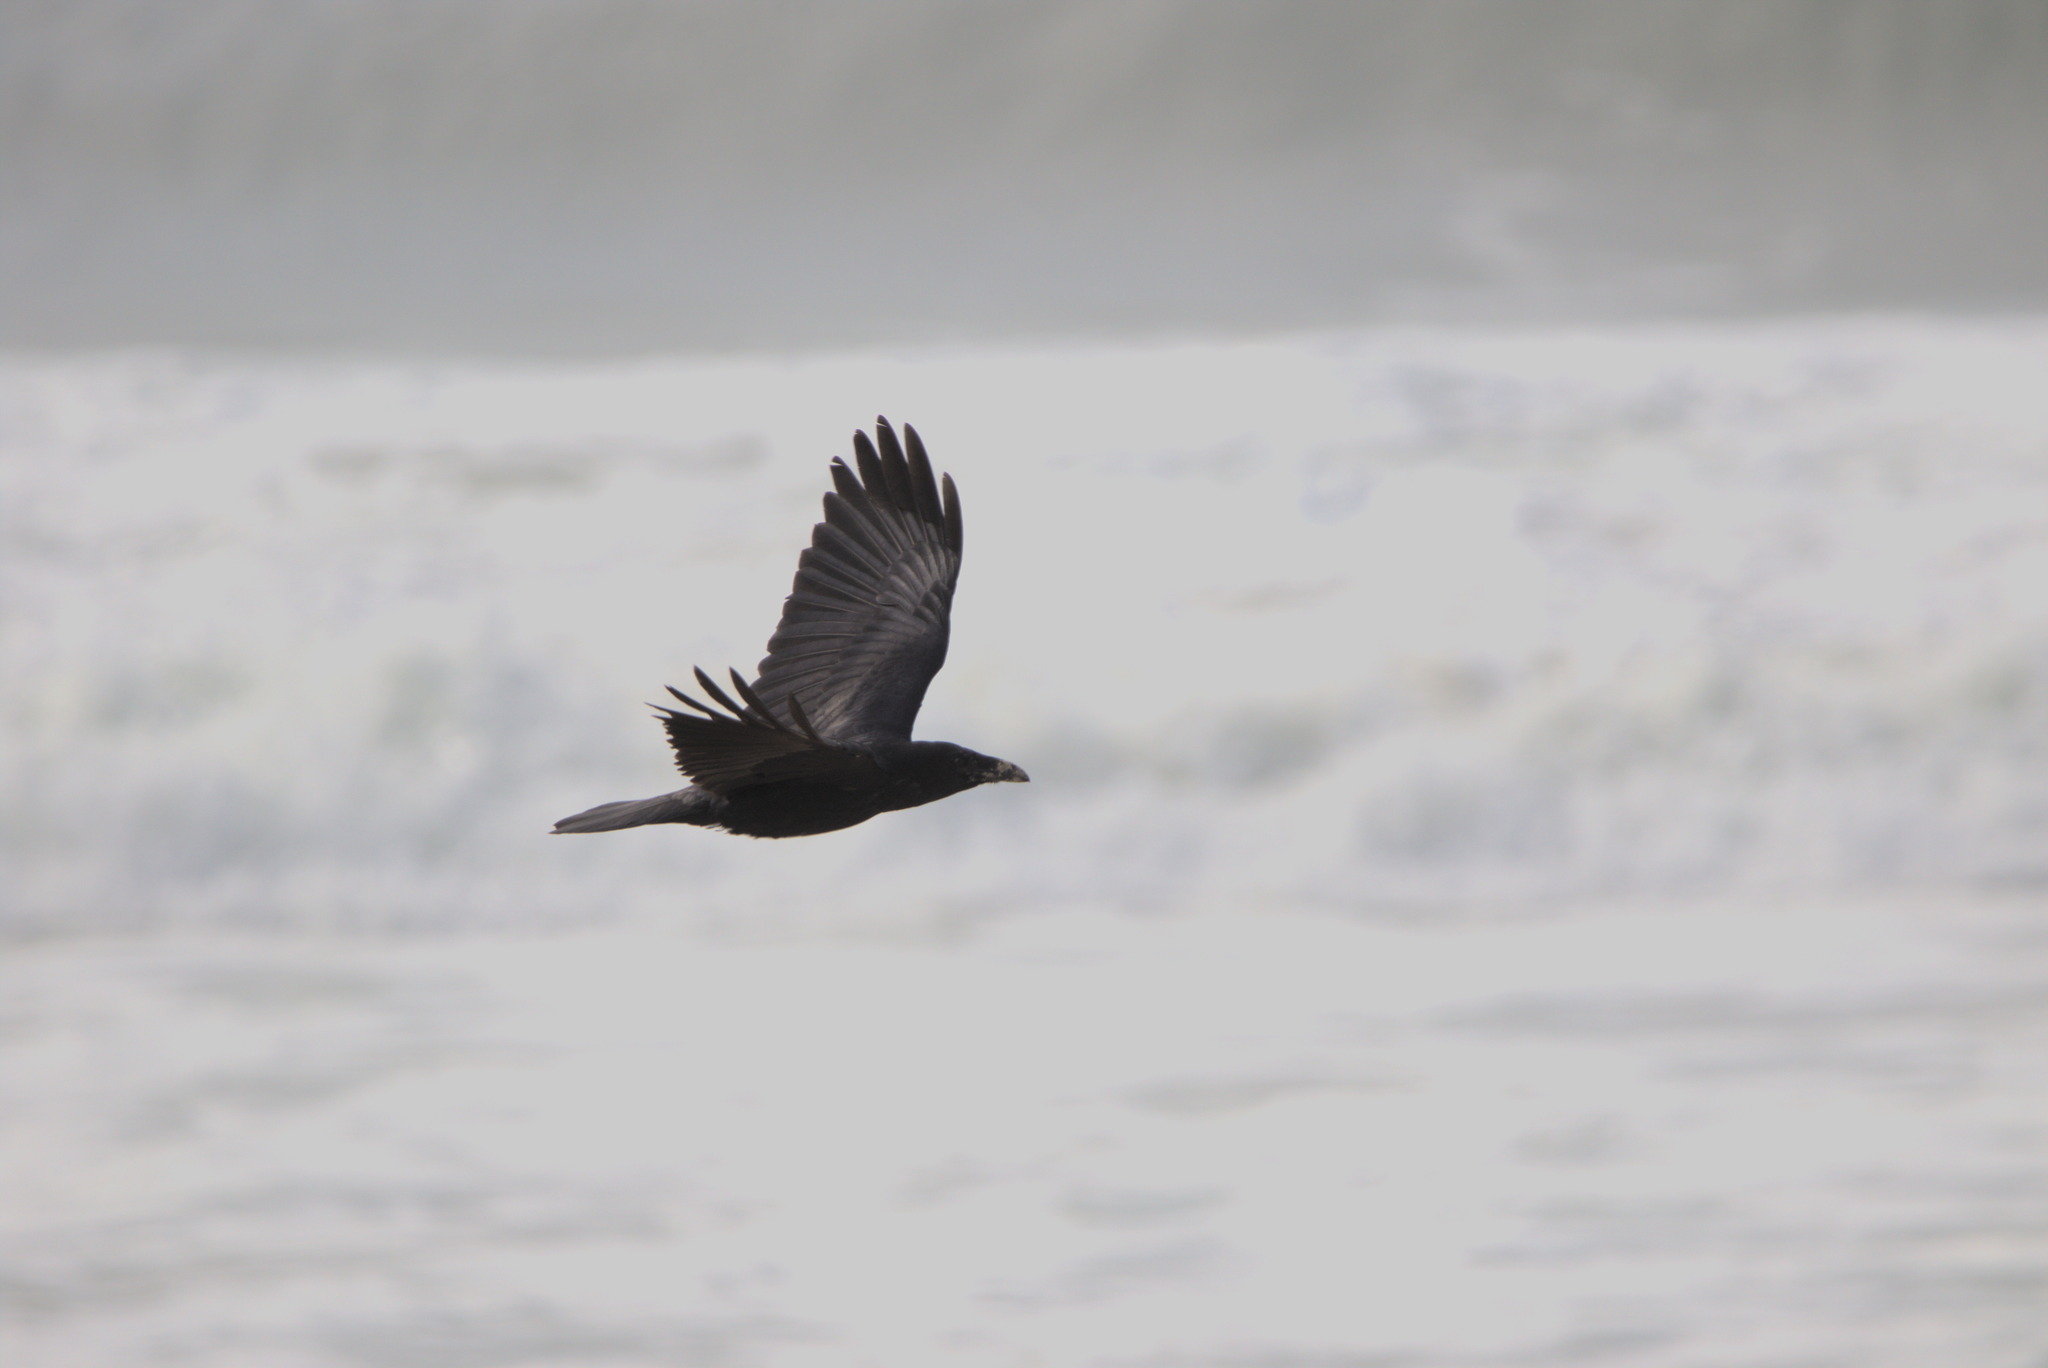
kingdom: Animalia
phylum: Chordata
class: Aves
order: Passeriformes
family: Corvidae
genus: Corvus
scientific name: Corvus corax
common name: Common raven
